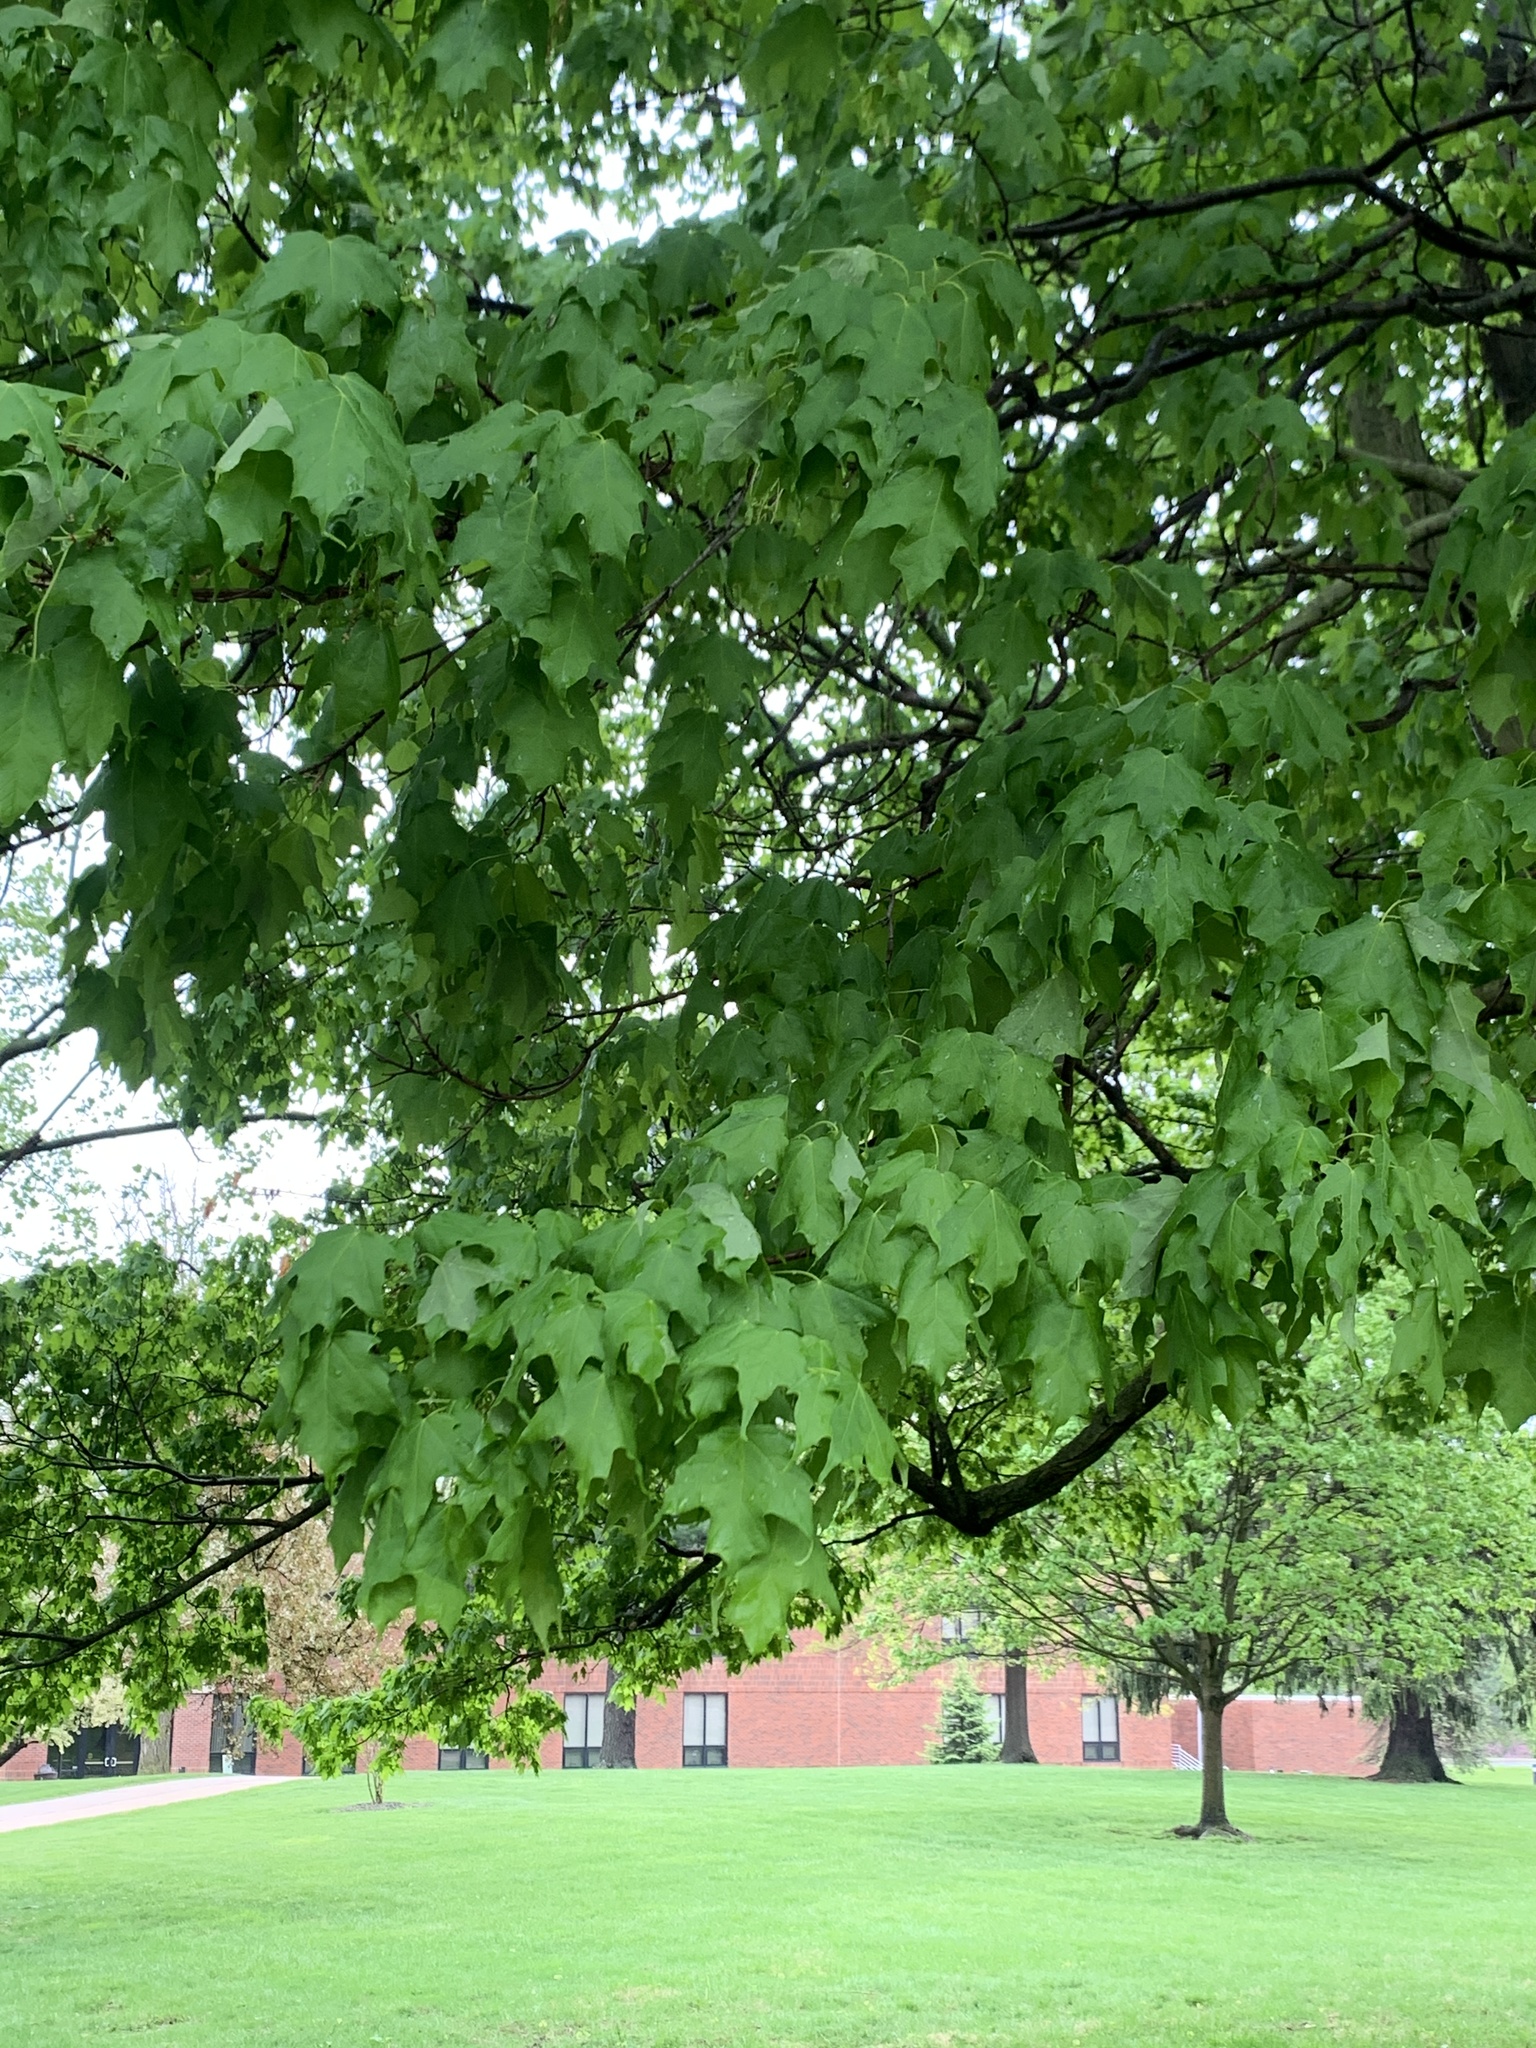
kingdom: Plantae
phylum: Tracheophyta
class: Magnoliopsida
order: Sapindales
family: Sapindaceae
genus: Acer
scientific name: Acer nigrum
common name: Black maple
